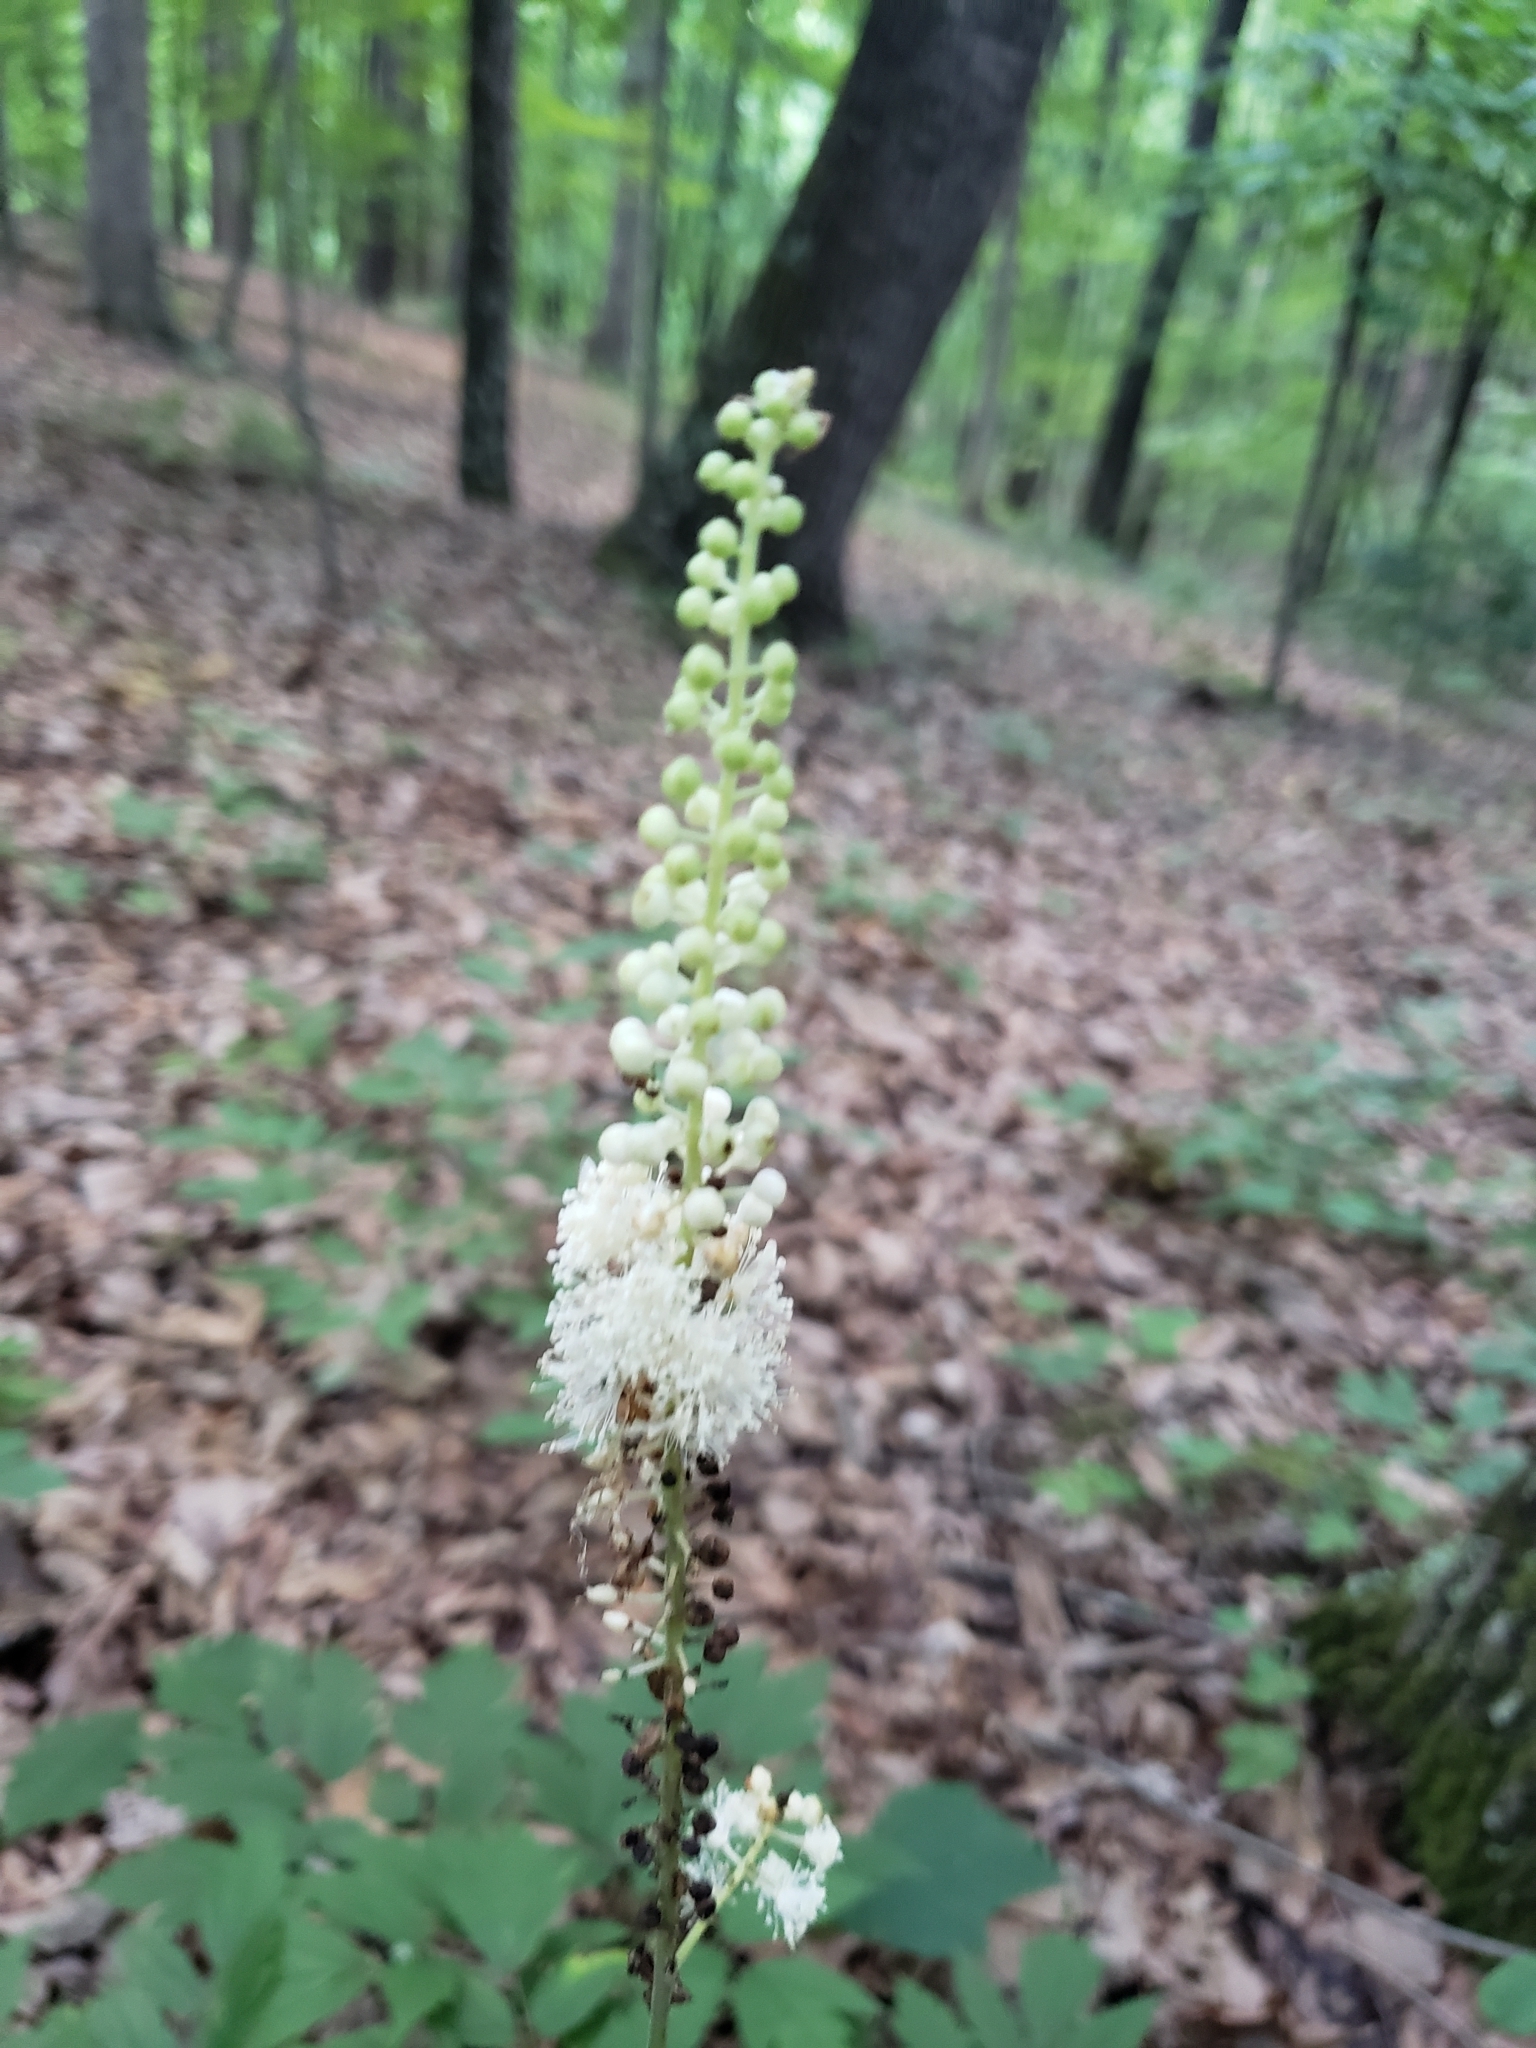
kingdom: Plantae
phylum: Tracheophyta
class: Magnoliopsida
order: Ranunculales
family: Ranunculaceae
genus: Actaea
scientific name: Actaea racemosa
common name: Black cohosh
